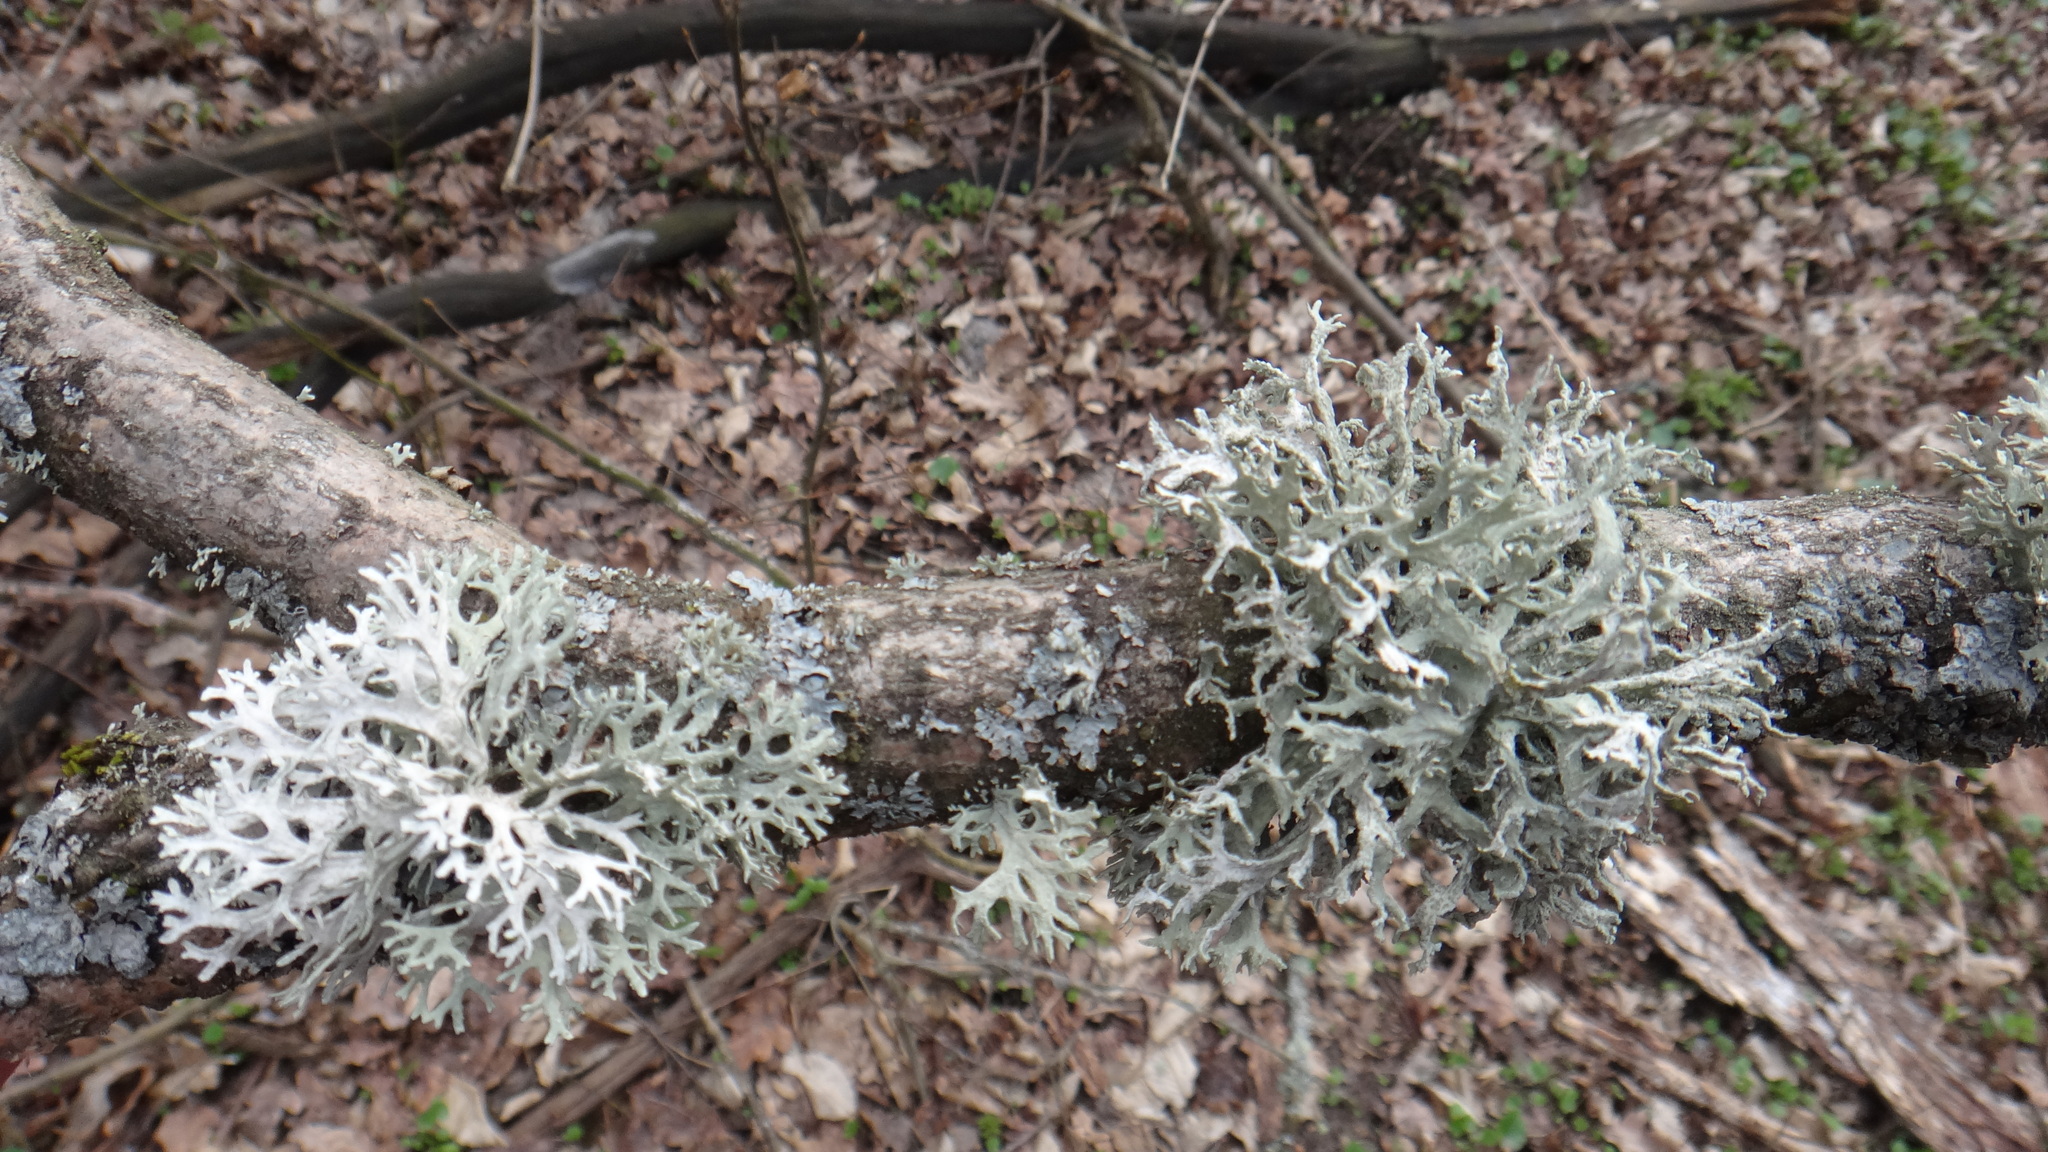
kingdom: Fungi
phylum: Ascomycota
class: Lecanoromycetes
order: Lecanorales
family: Parmeliaceae
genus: Evernia
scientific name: Evernia prunastri
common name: Oak moss
